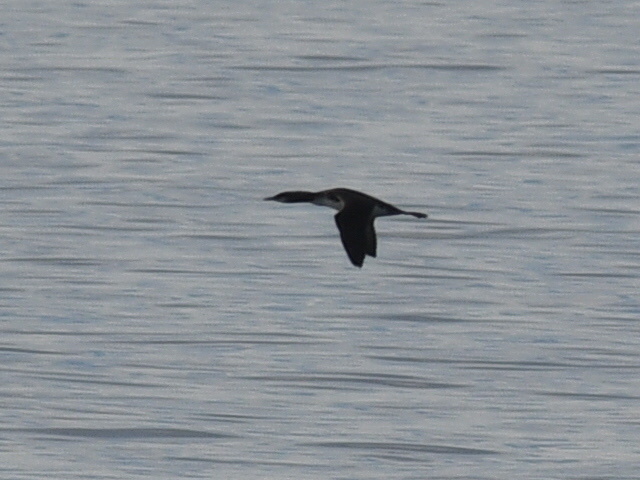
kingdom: Animalia
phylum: Chordata
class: Aves
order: Gaviiformes
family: Gaviidae
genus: Gavia
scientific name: Gavia pacifica
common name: Pacific loon
